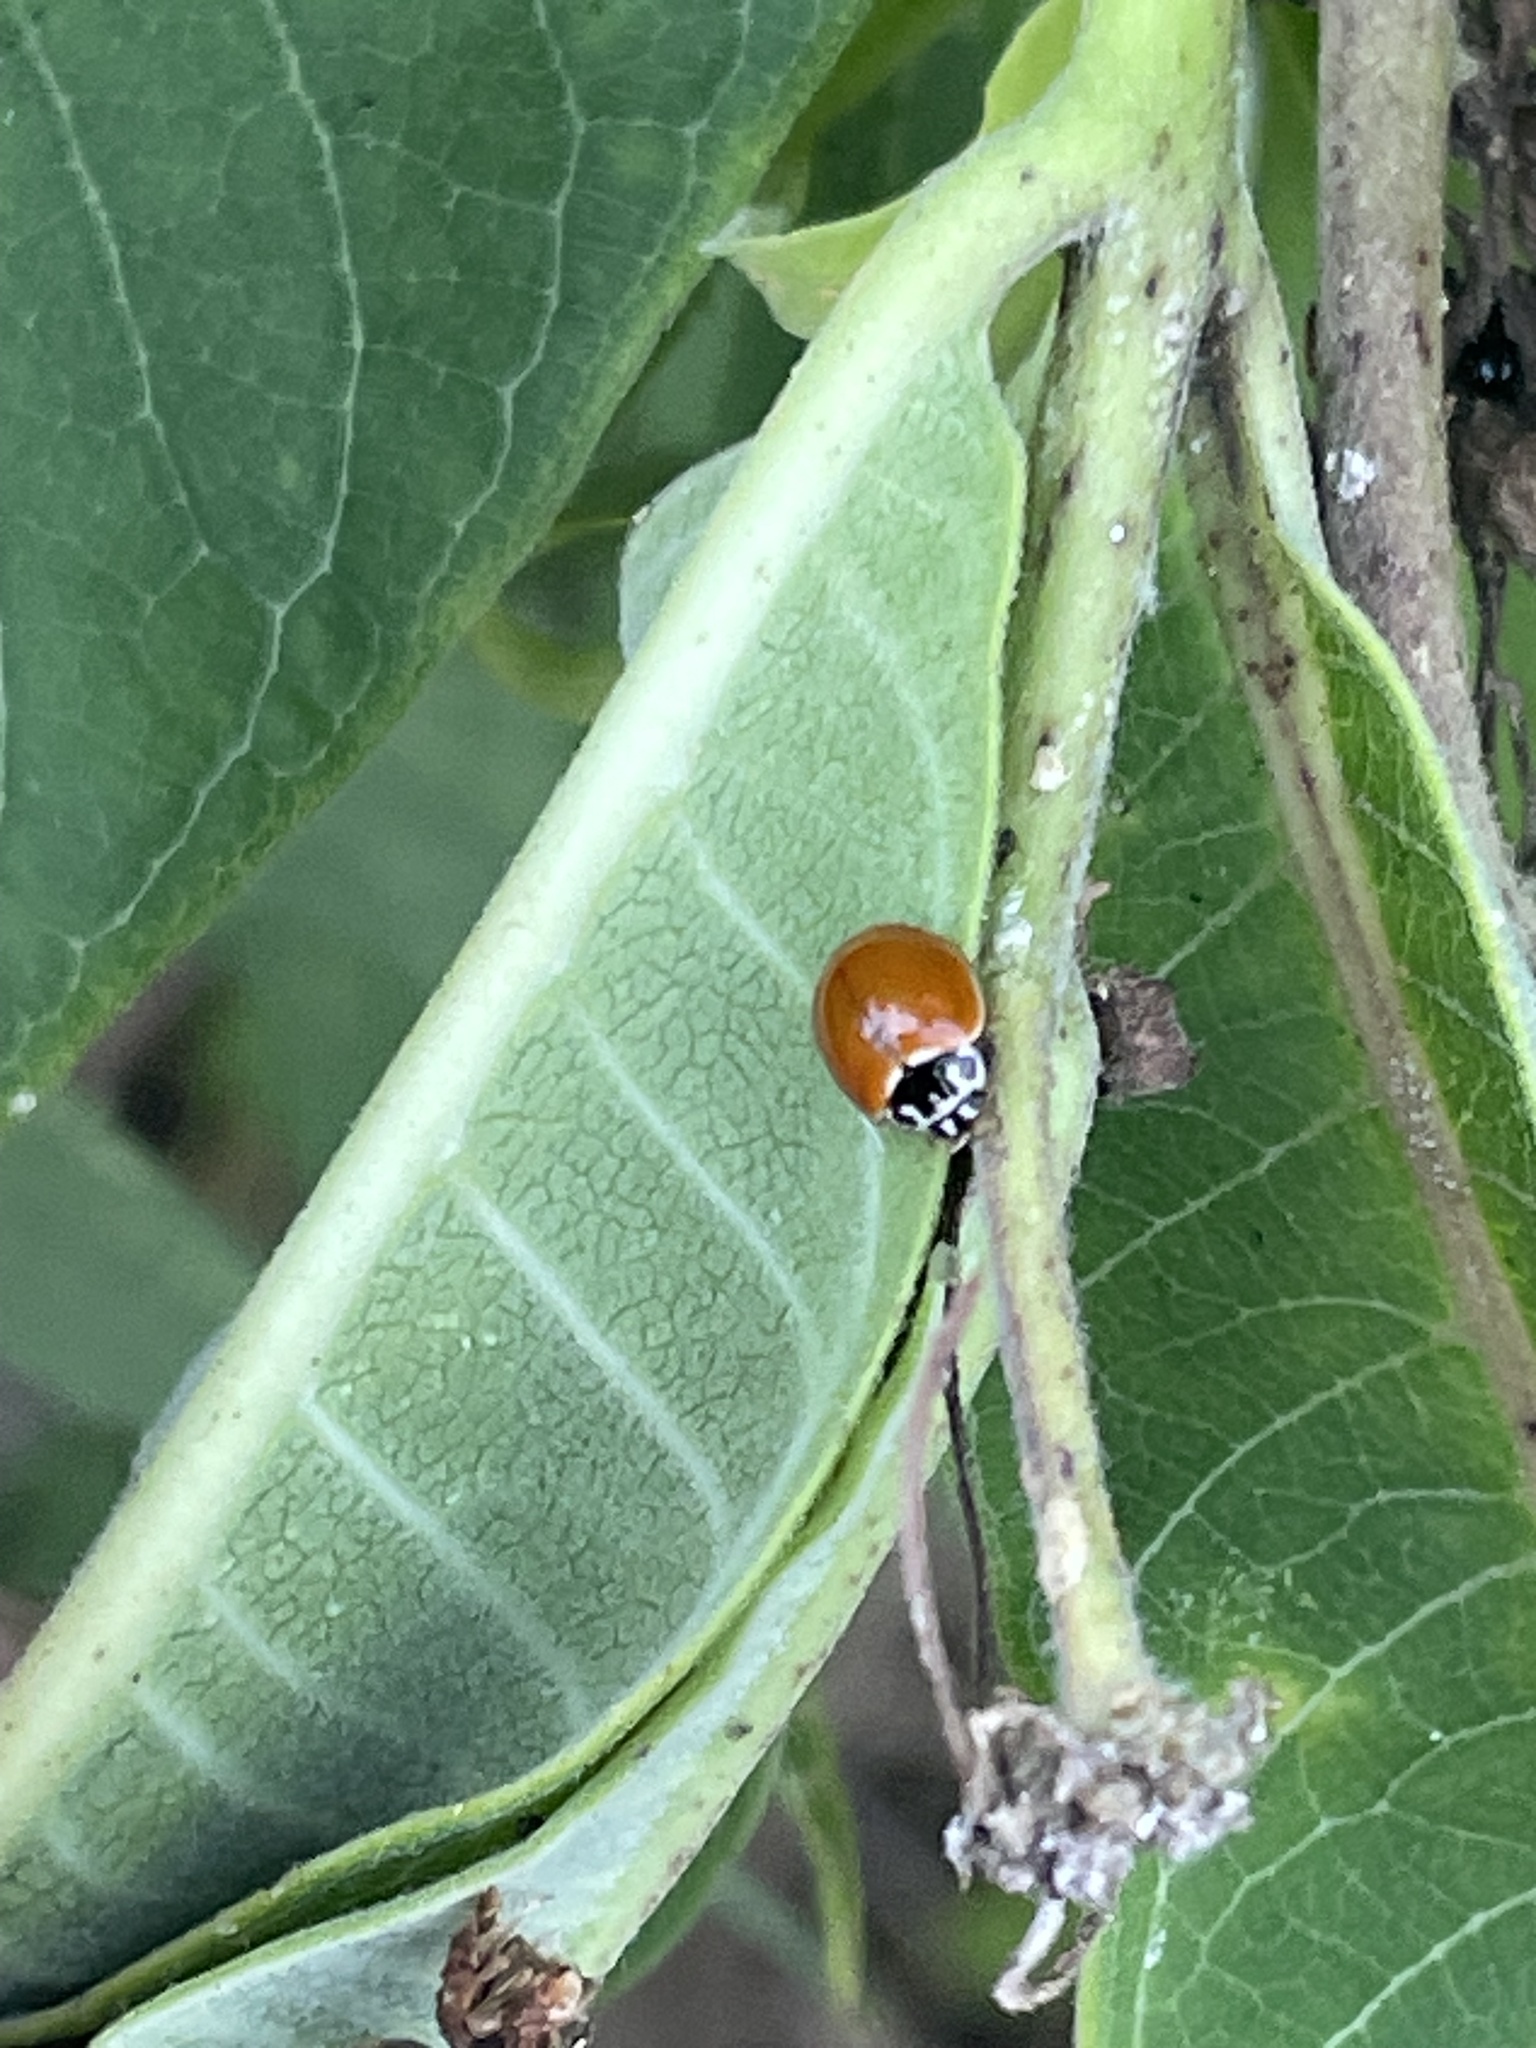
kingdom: Animalia
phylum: Arthropoda
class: Insecta
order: Coleoptera
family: Coccinellidae
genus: Cycloneda
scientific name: Cycloneda munda
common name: Polished lady beetle
